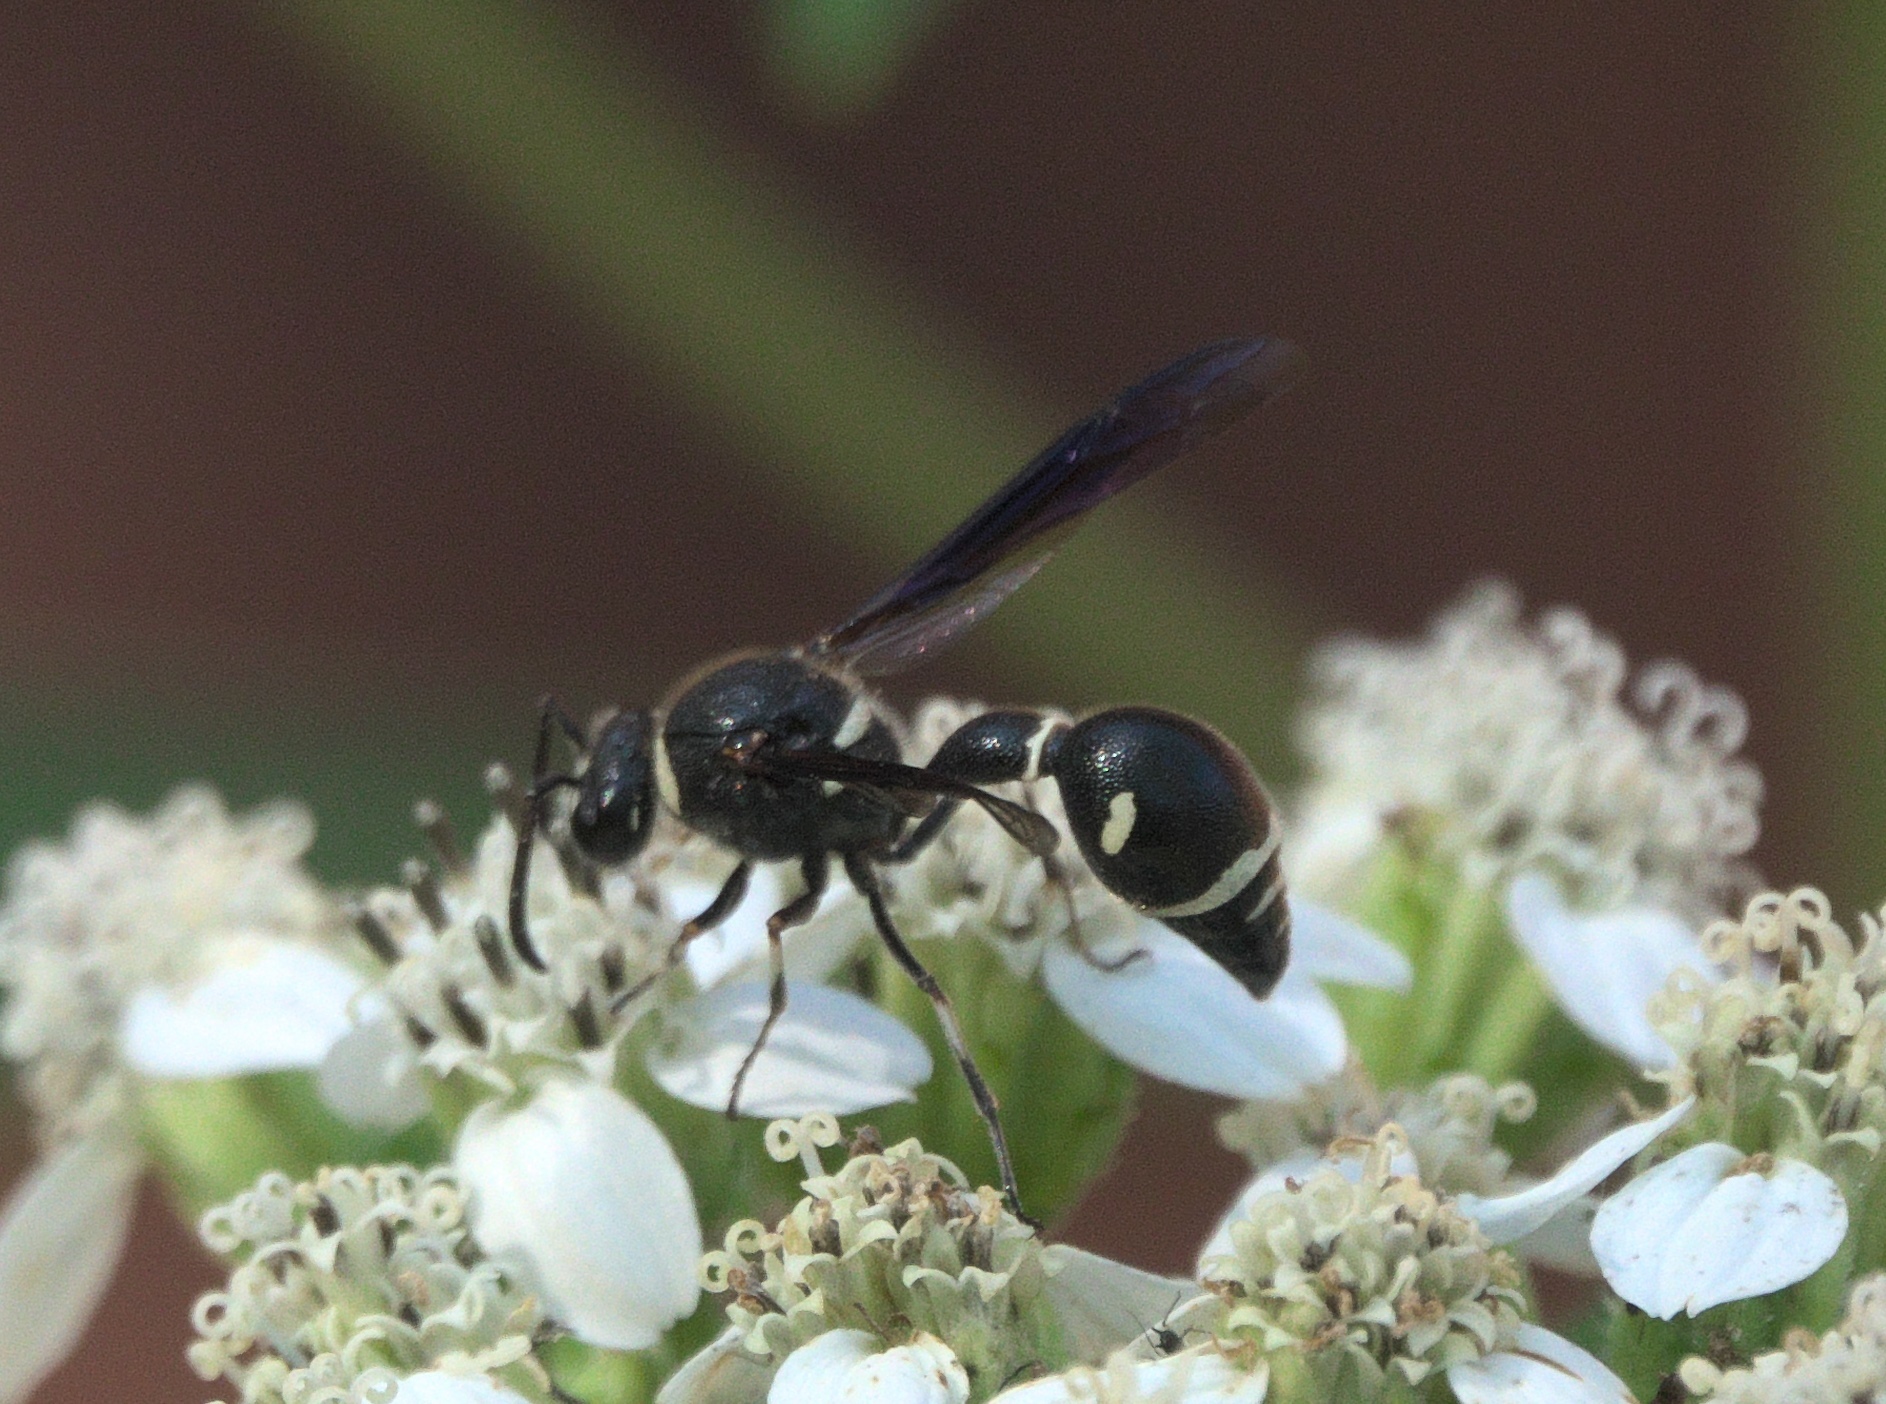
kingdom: Animalia
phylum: Arthropoda
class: Insecta
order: Hymenoptera
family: Vespidae
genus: Eumenes
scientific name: Eumenes fraternus
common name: Fraternal potter wasp
